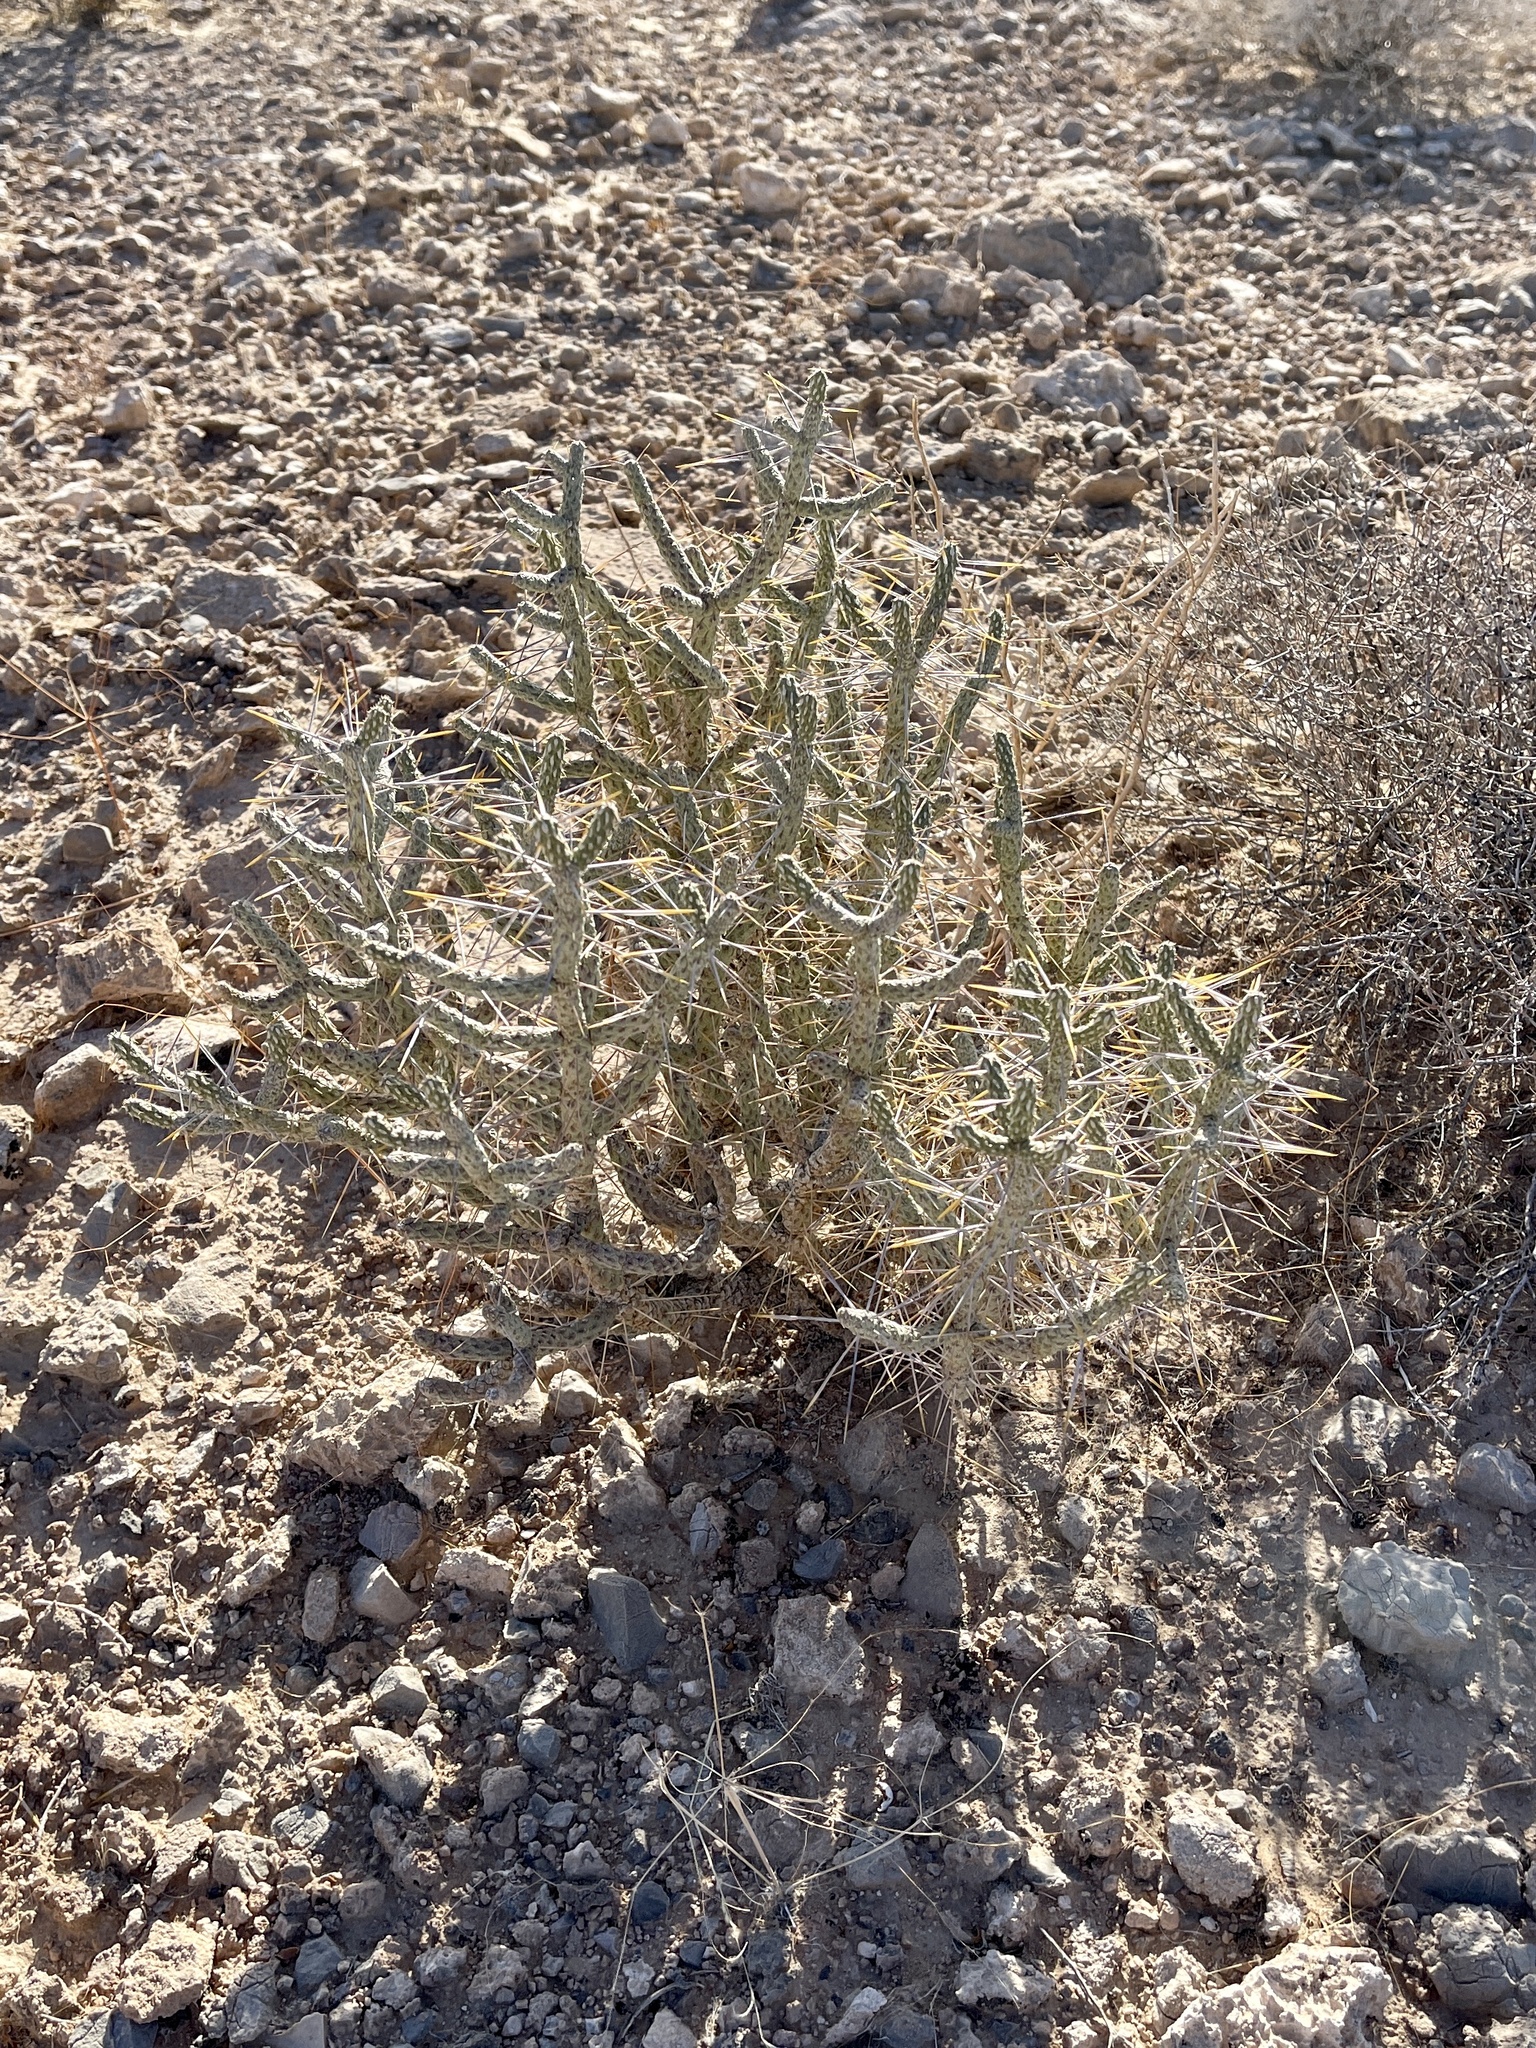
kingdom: Plantae
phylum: Tracheophyta
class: Magnoliopsida
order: Caryophyllales
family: Cactaceae
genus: Cylindropuntia
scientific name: Cylindropuntia ramosissima
